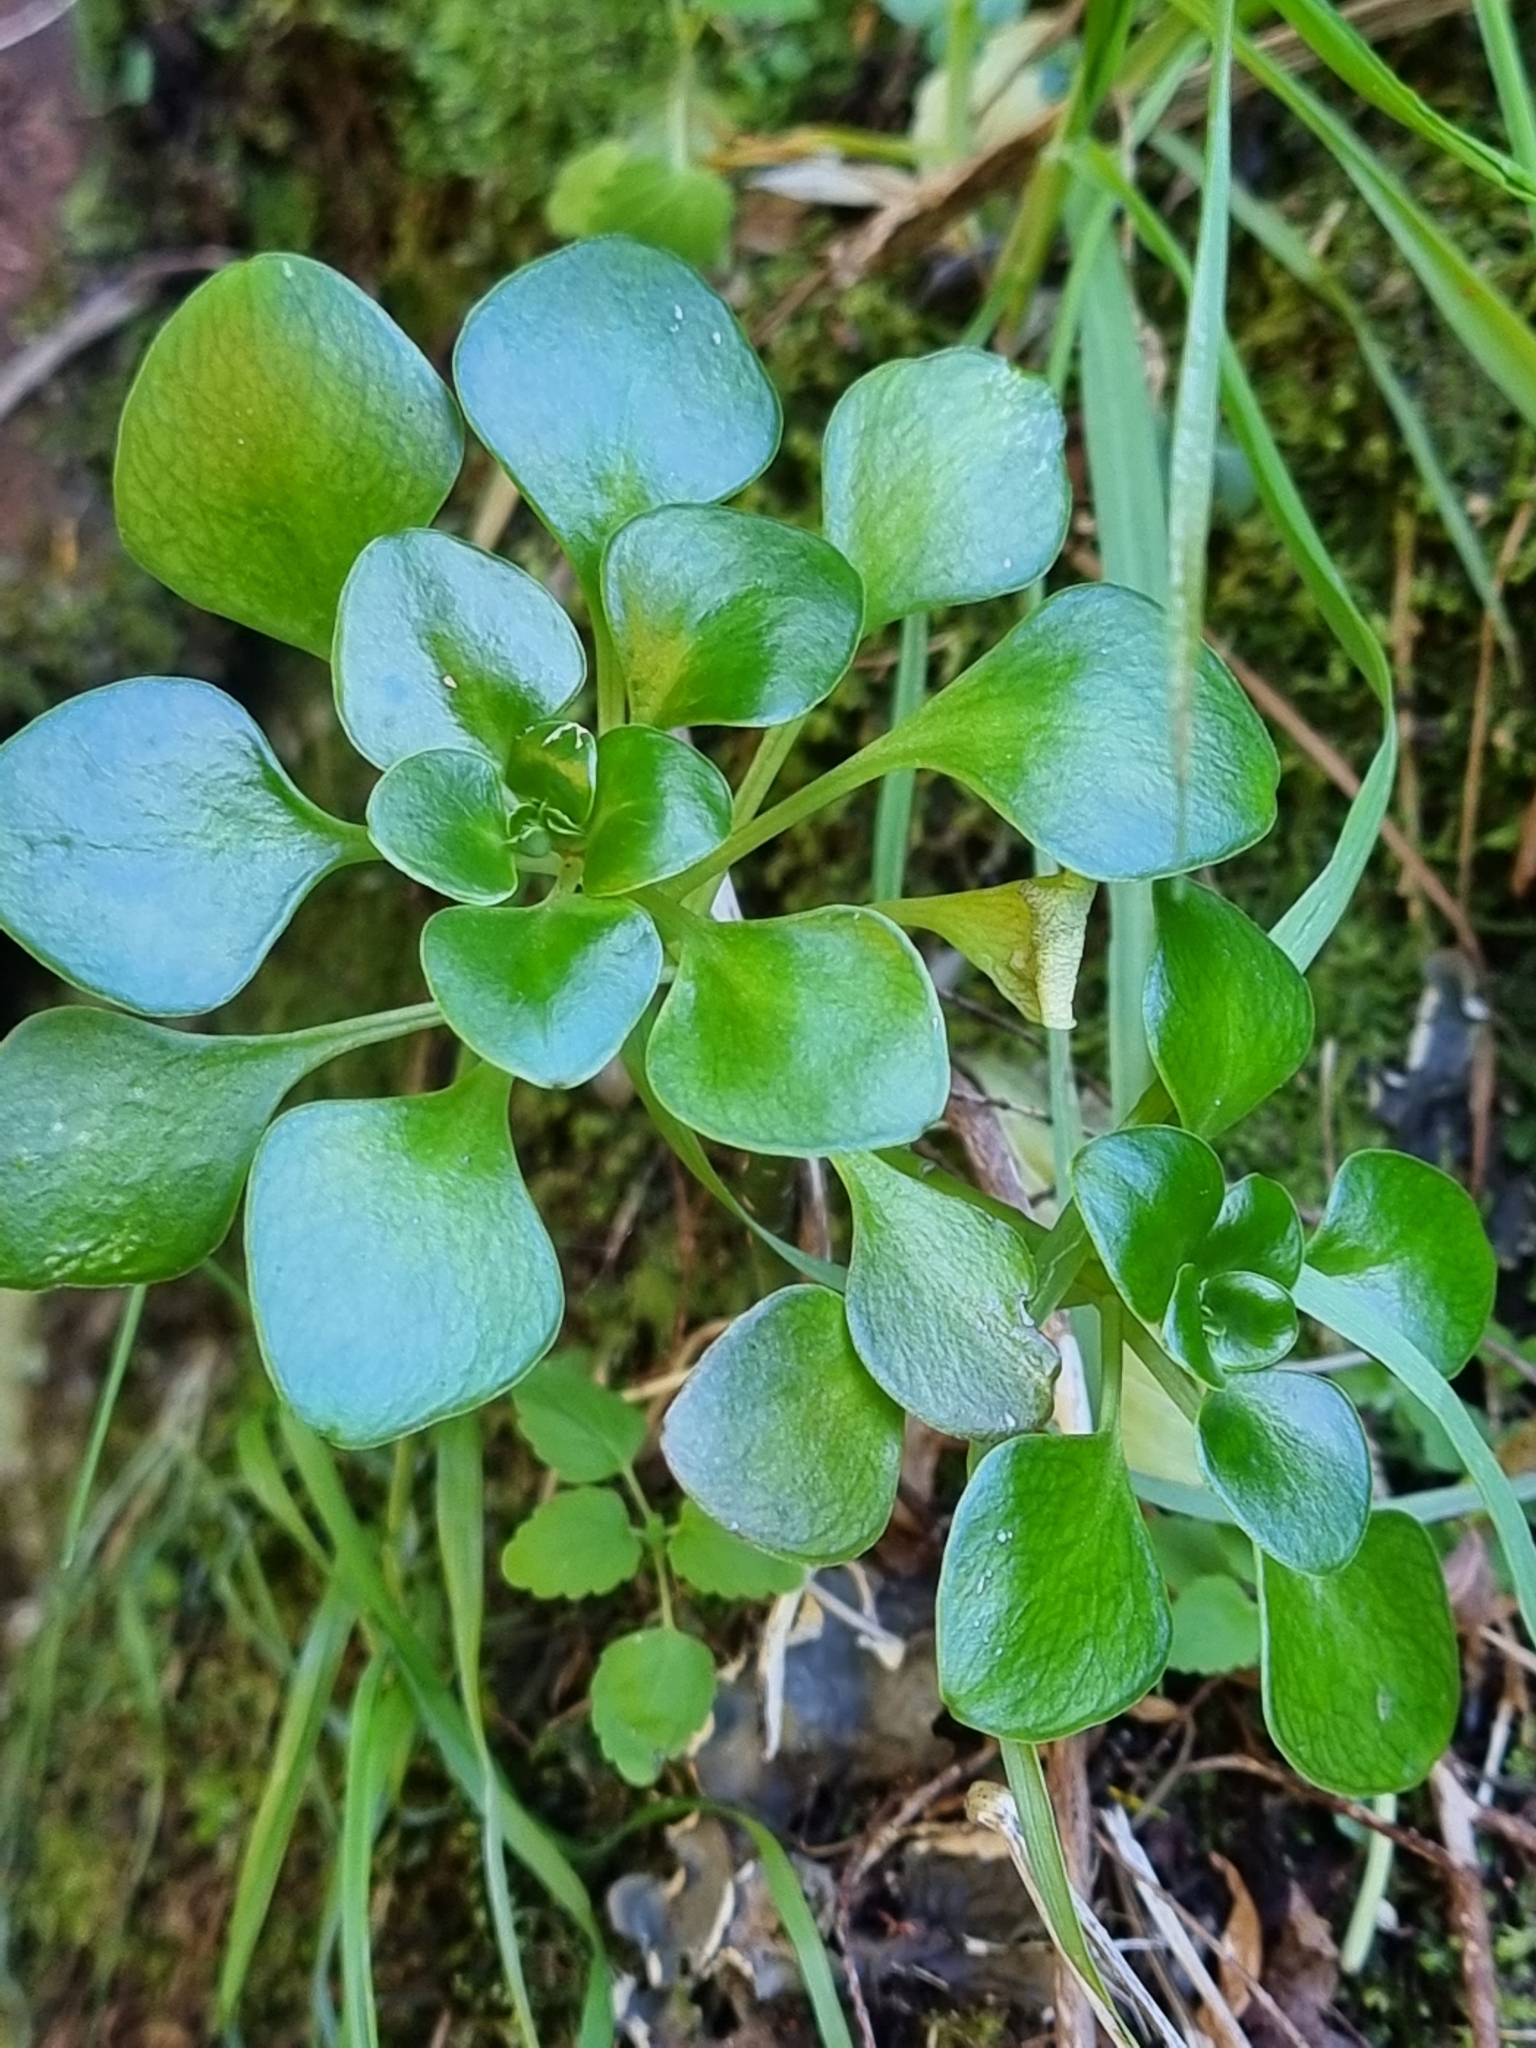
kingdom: Plantae
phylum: Tracheophyta
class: Magnoliopsida
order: Saxifragales
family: Crassulaceae
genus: Aichryson
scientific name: Aichryson divaricatum
